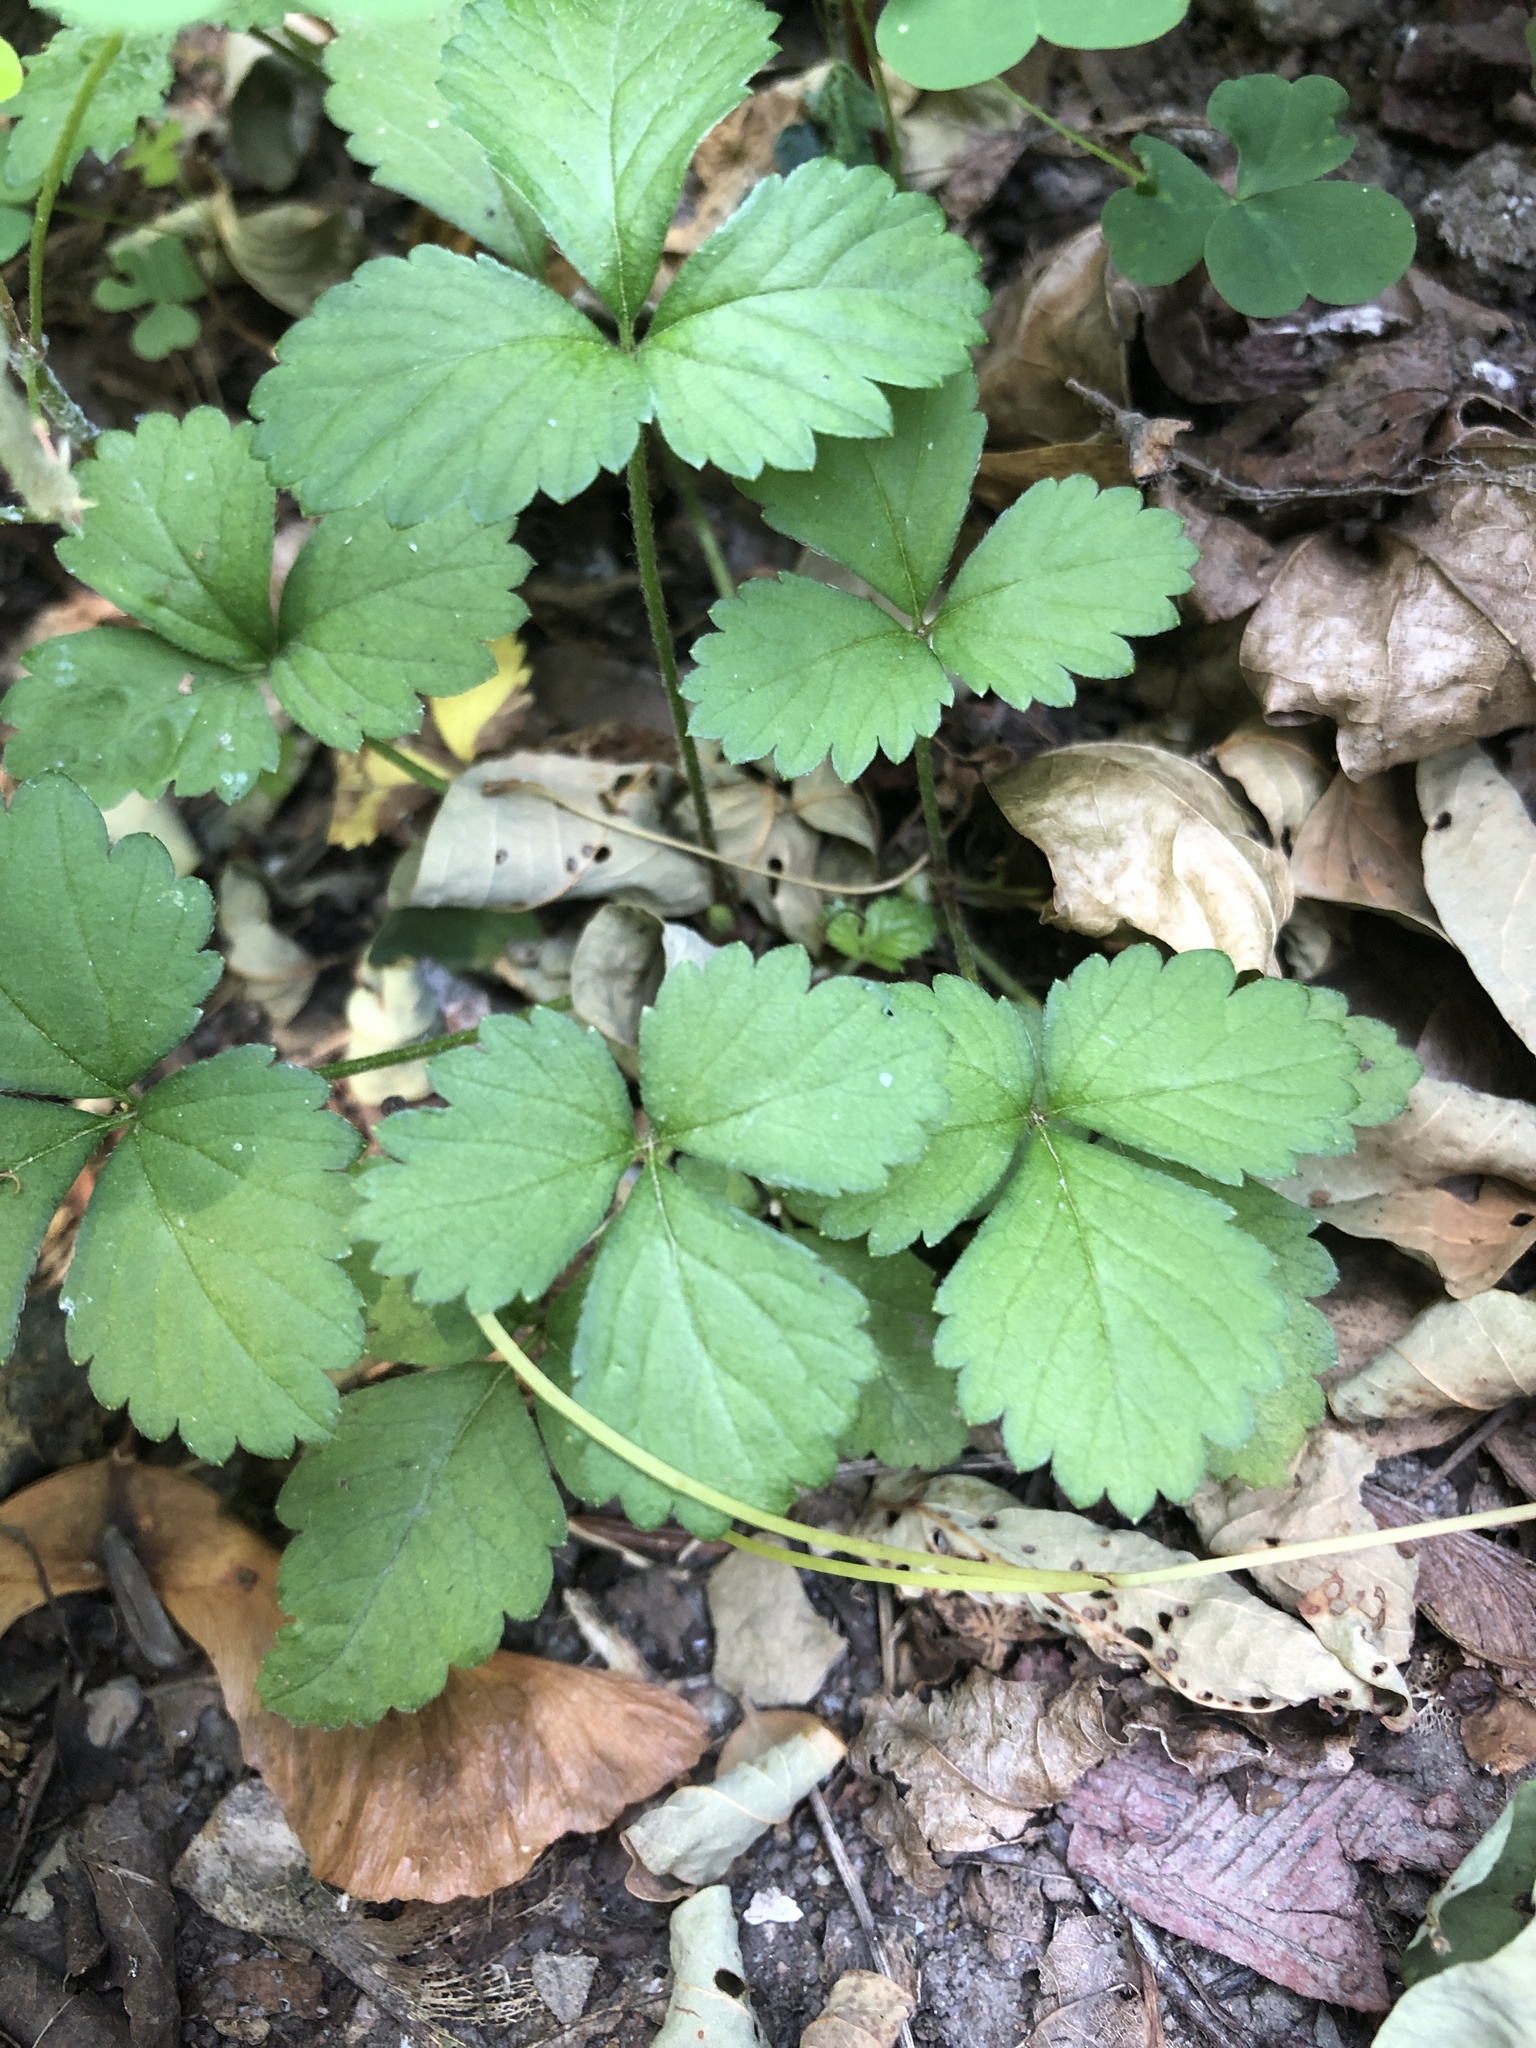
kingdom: Plantae
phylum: Tracheophyta
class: Magnoliopsida
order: Rosales
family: Rosaceae
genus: Potentilla
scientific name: Potentilla indica
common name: Yellow-flowered strawberry
